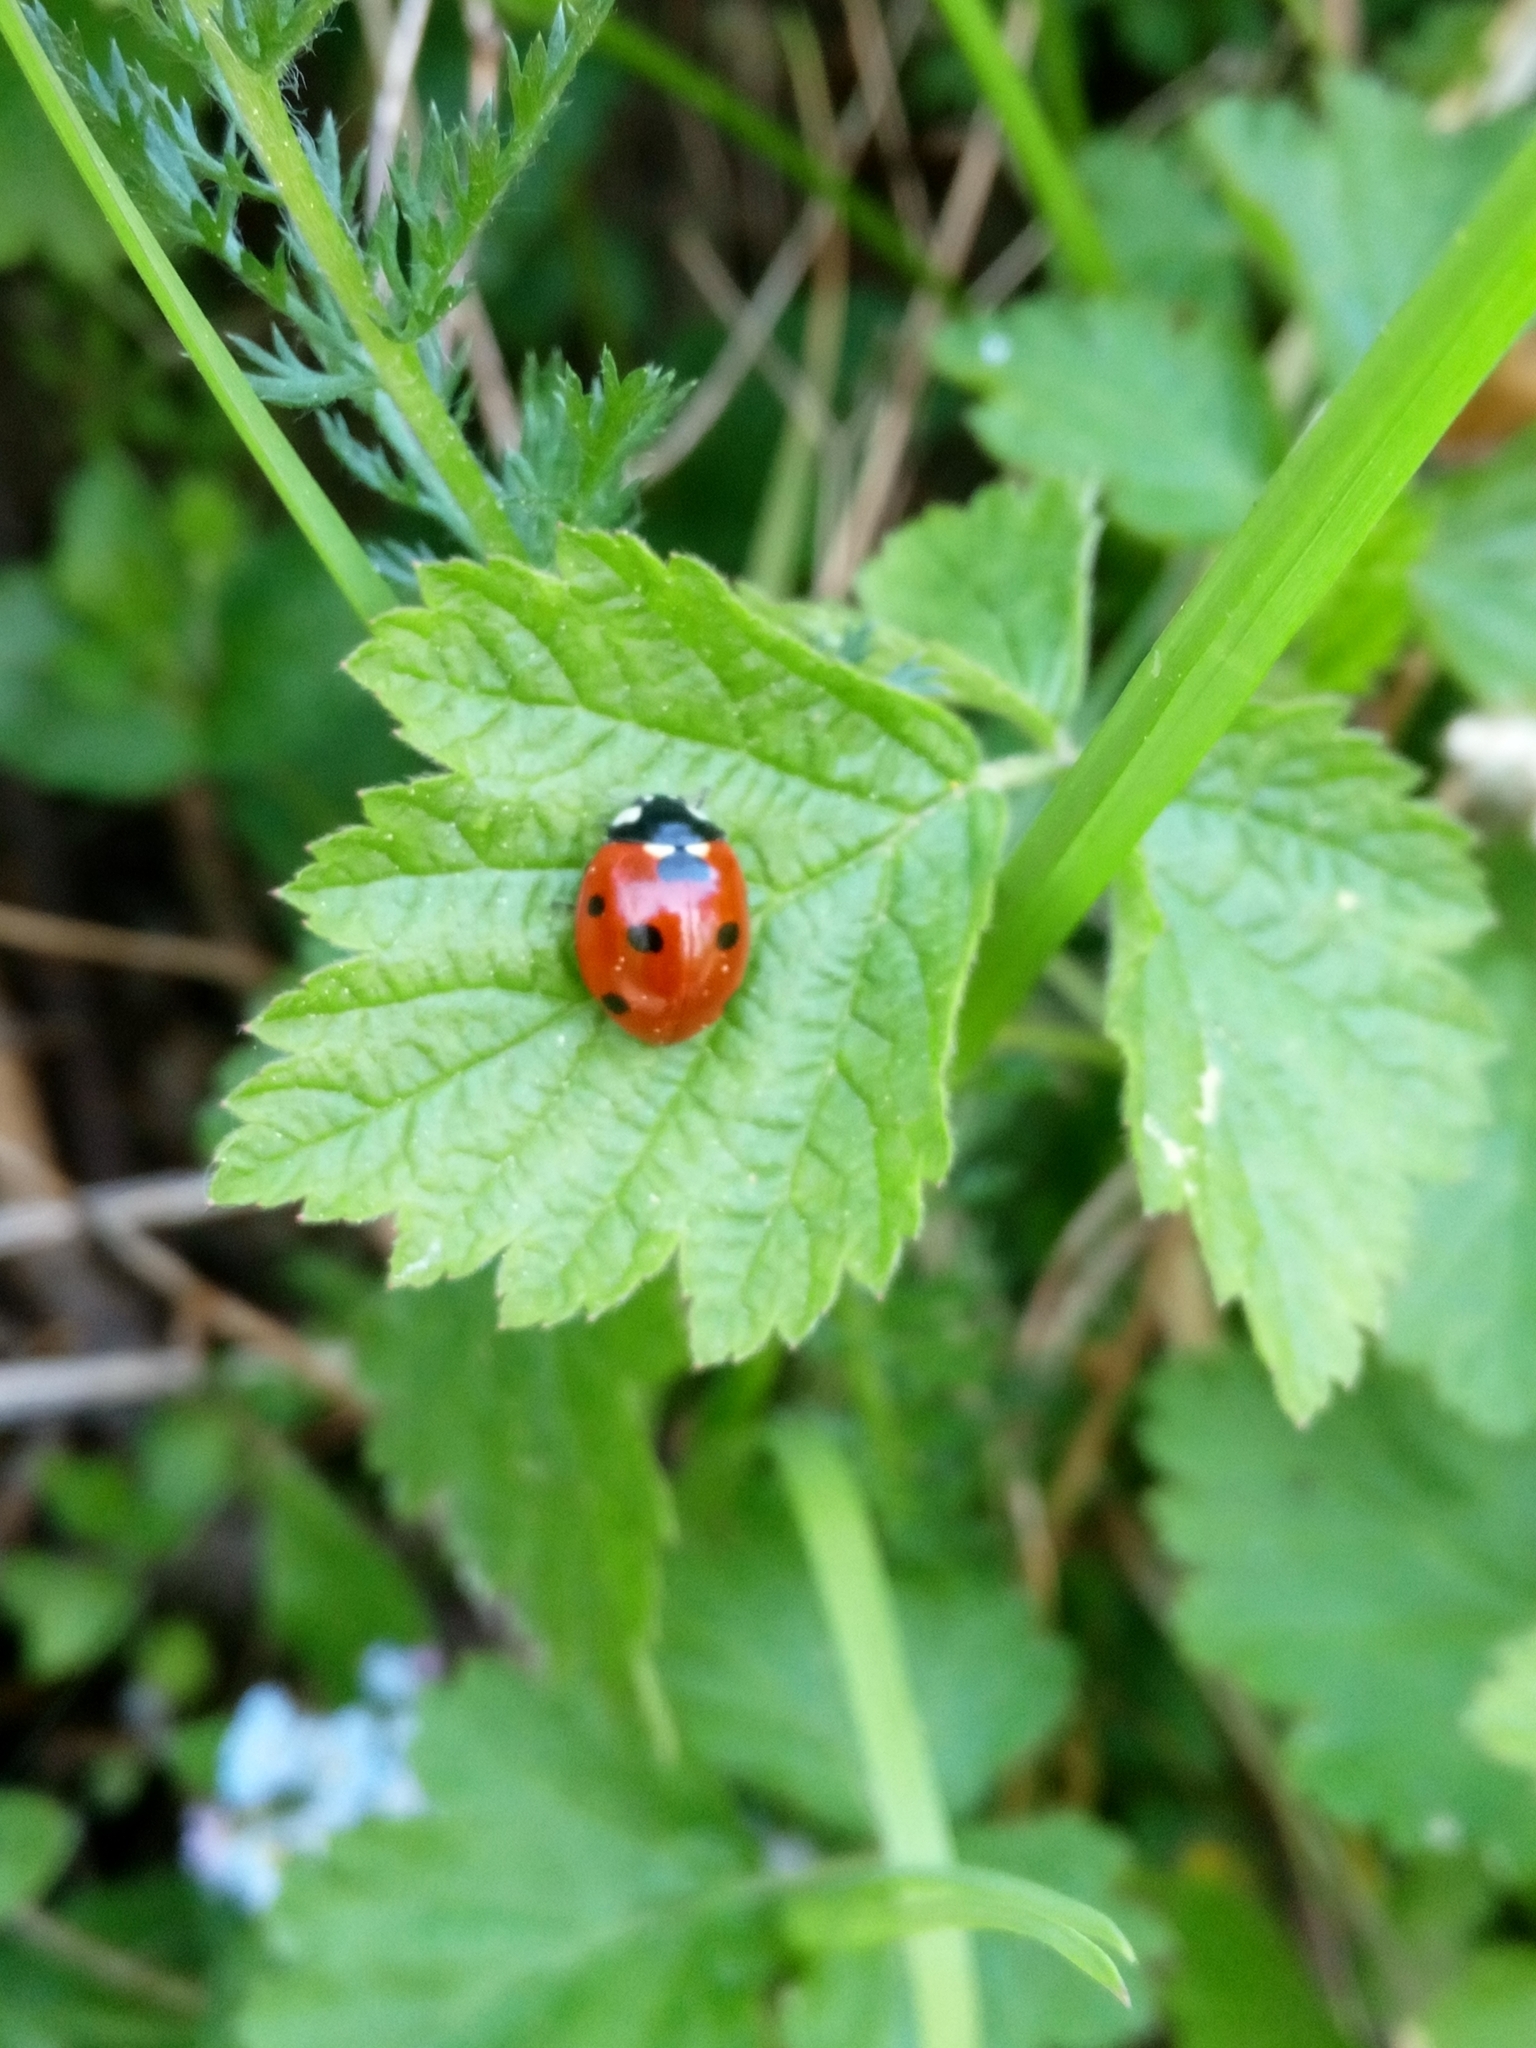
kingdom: Animalia
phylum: Arthropoda
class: Insecta
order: Coleoptera
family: Coccinellidae
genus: Coccinella
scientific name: Coccinella septempunctata
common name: Sevenspotted lady beetle
